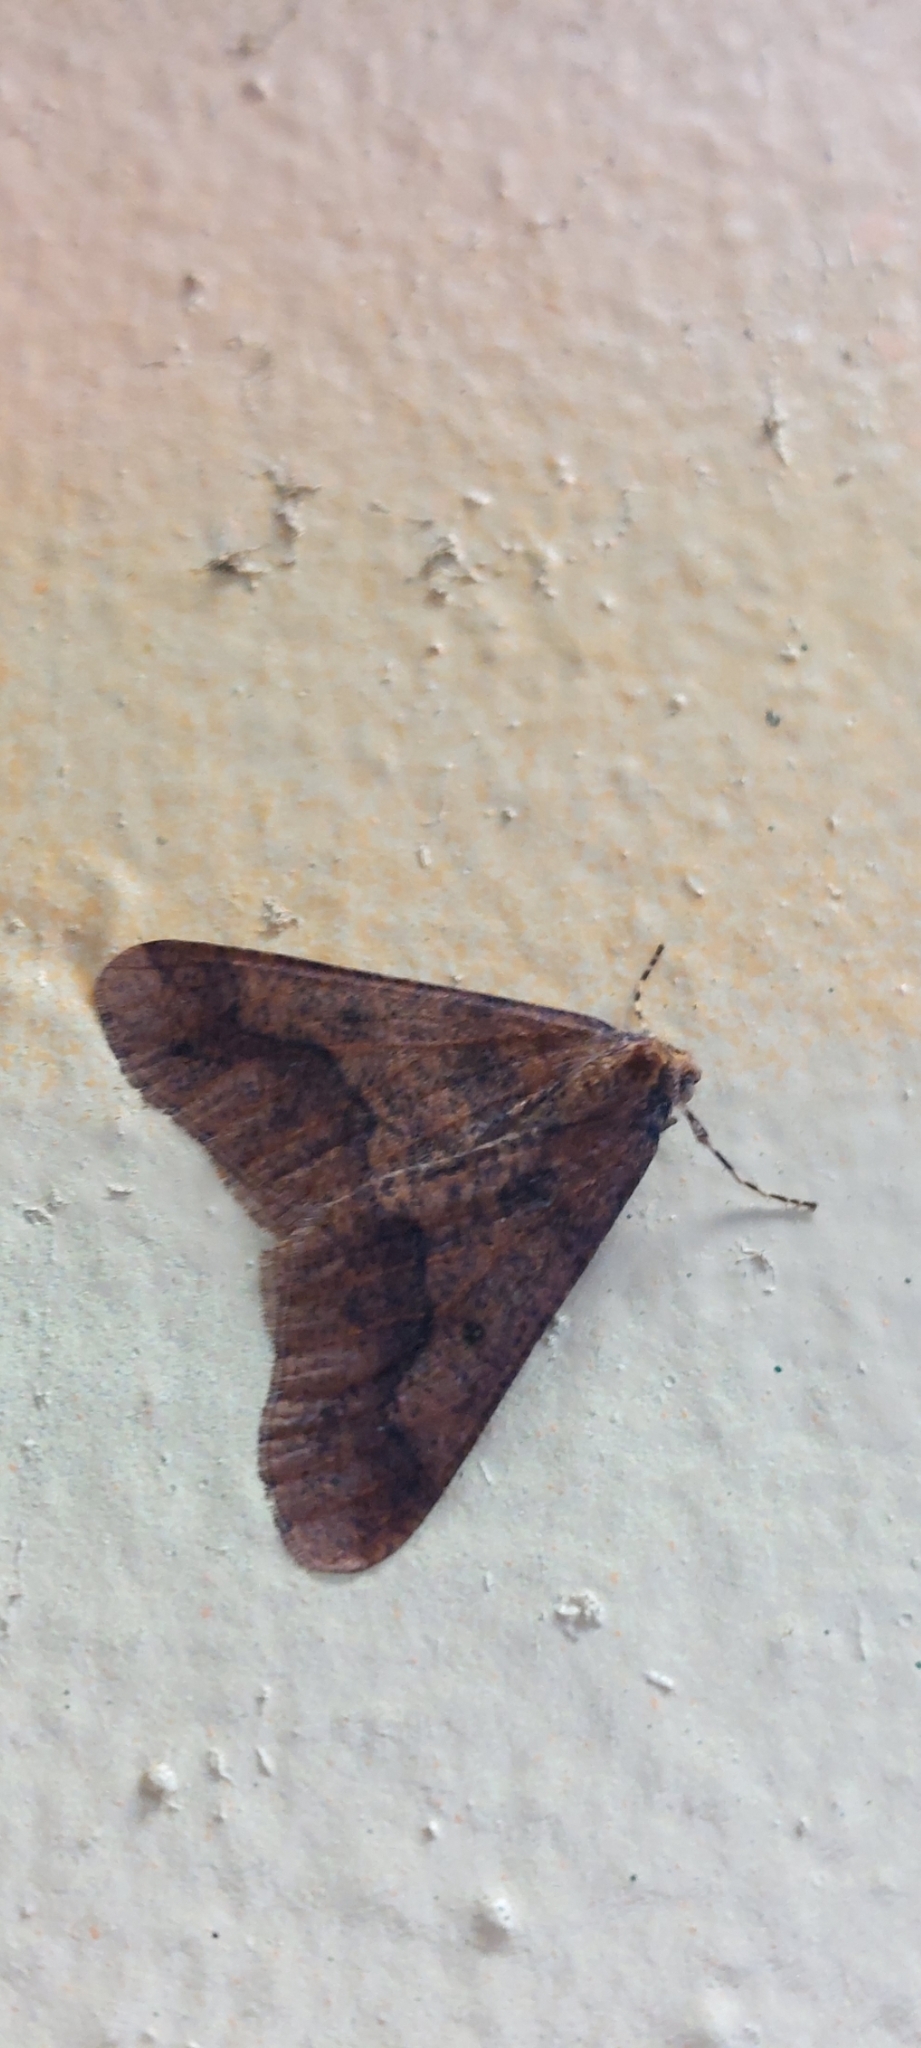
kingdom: Animalia
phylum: Arthropoda
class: Insecta
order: Lepidoptera
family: Geometridae
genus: Erannis
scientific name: Erannis defoliaria
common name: Mottled umber
